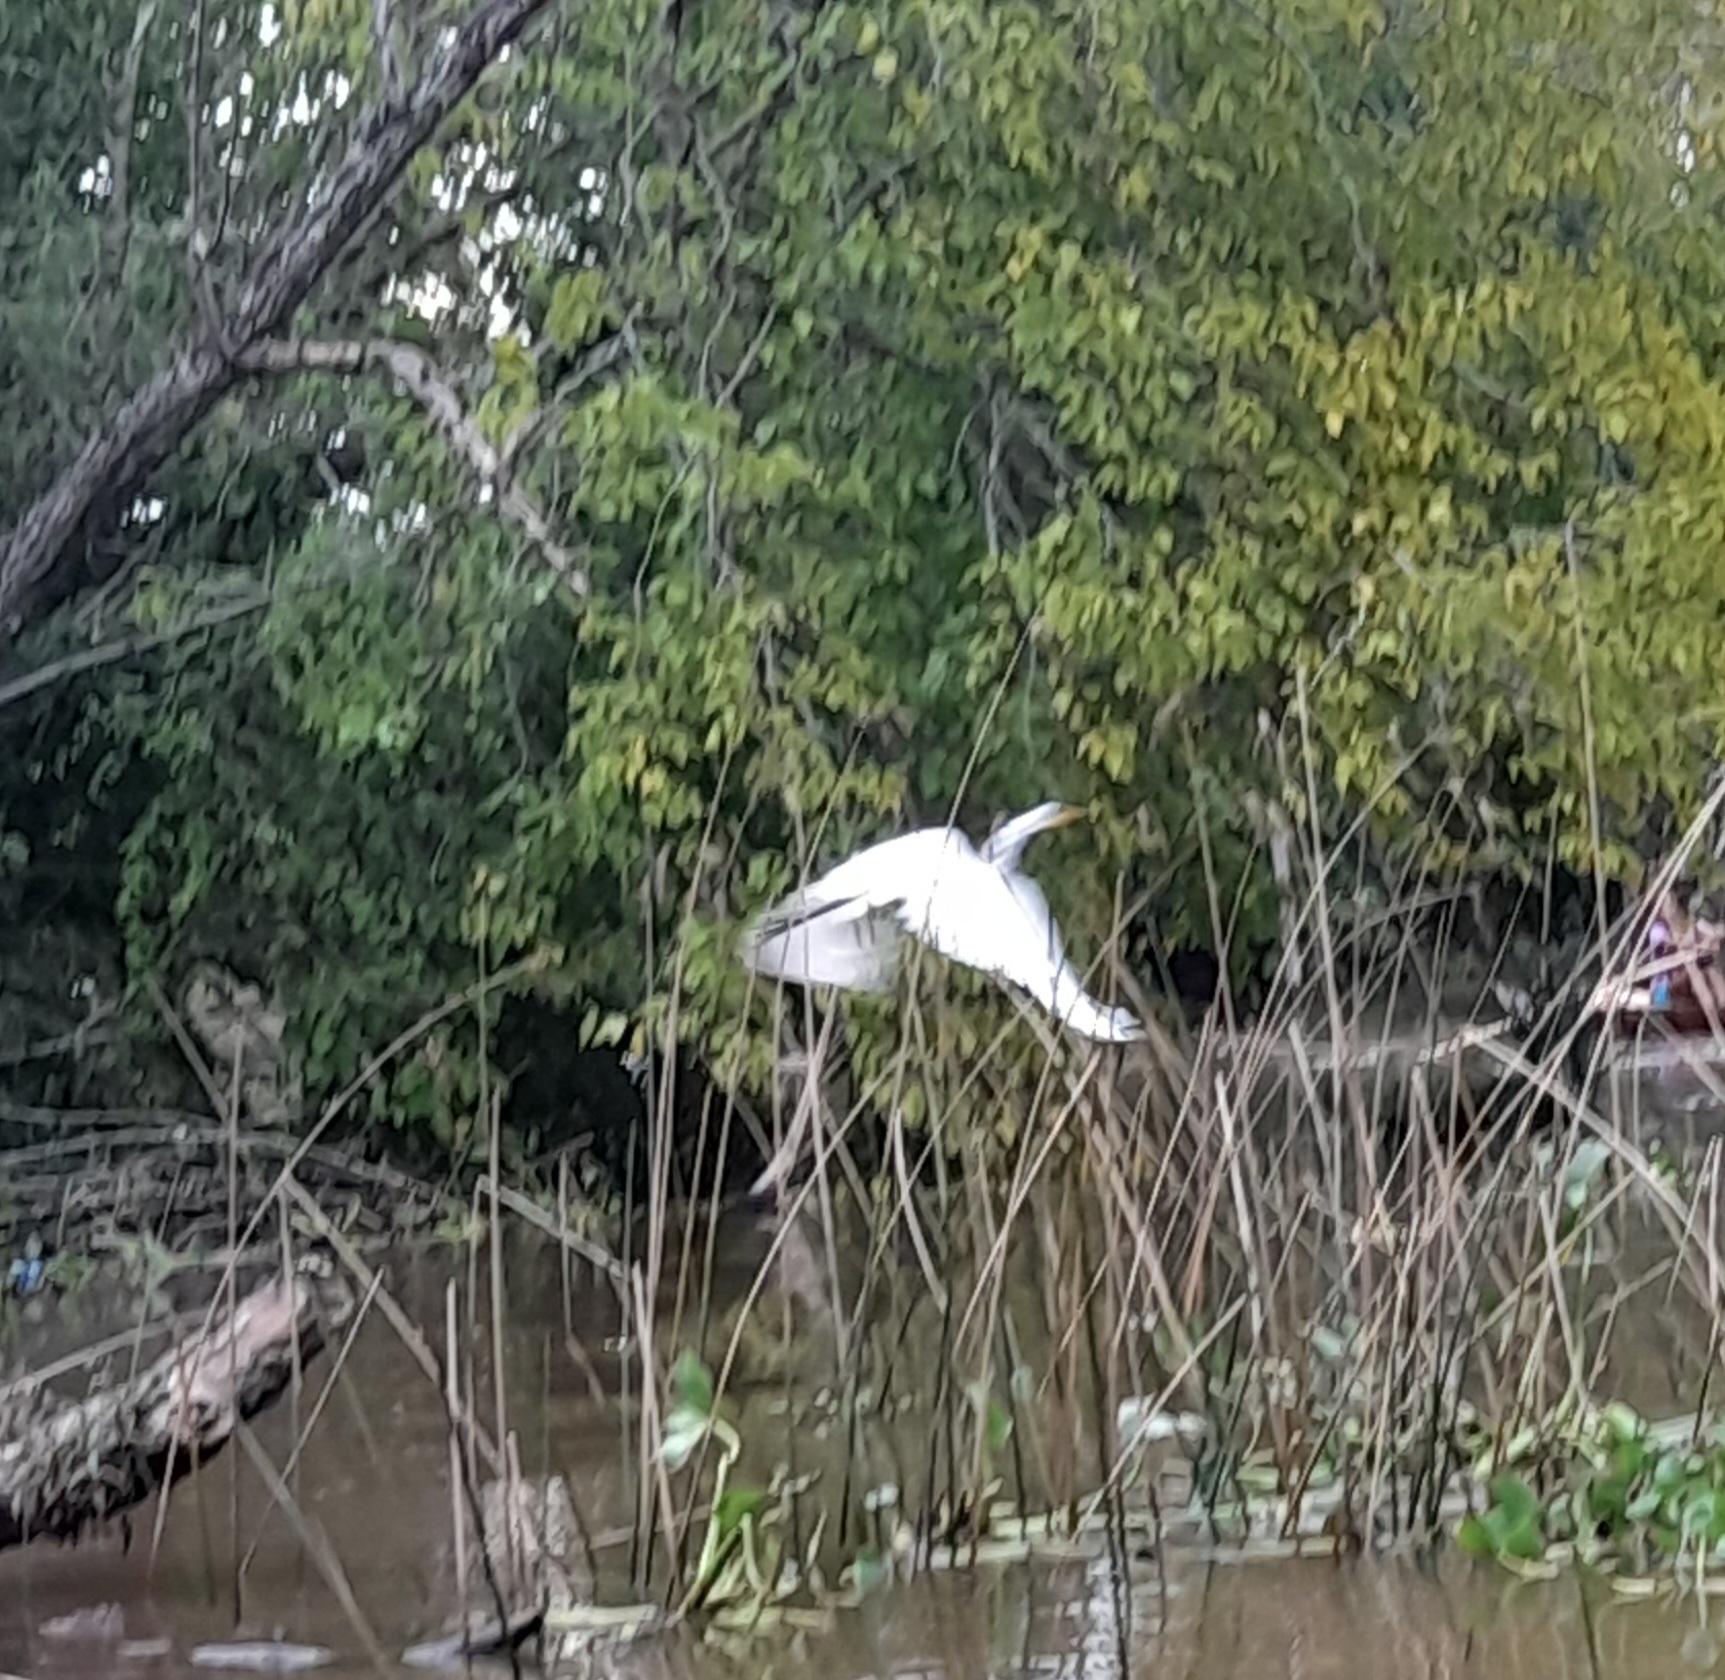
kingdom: Animalia
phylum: Chordata
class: Aves
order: Pelecaniformes
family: Ardeidae
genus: Ardea
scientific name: Ardea alba
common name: Great egret
